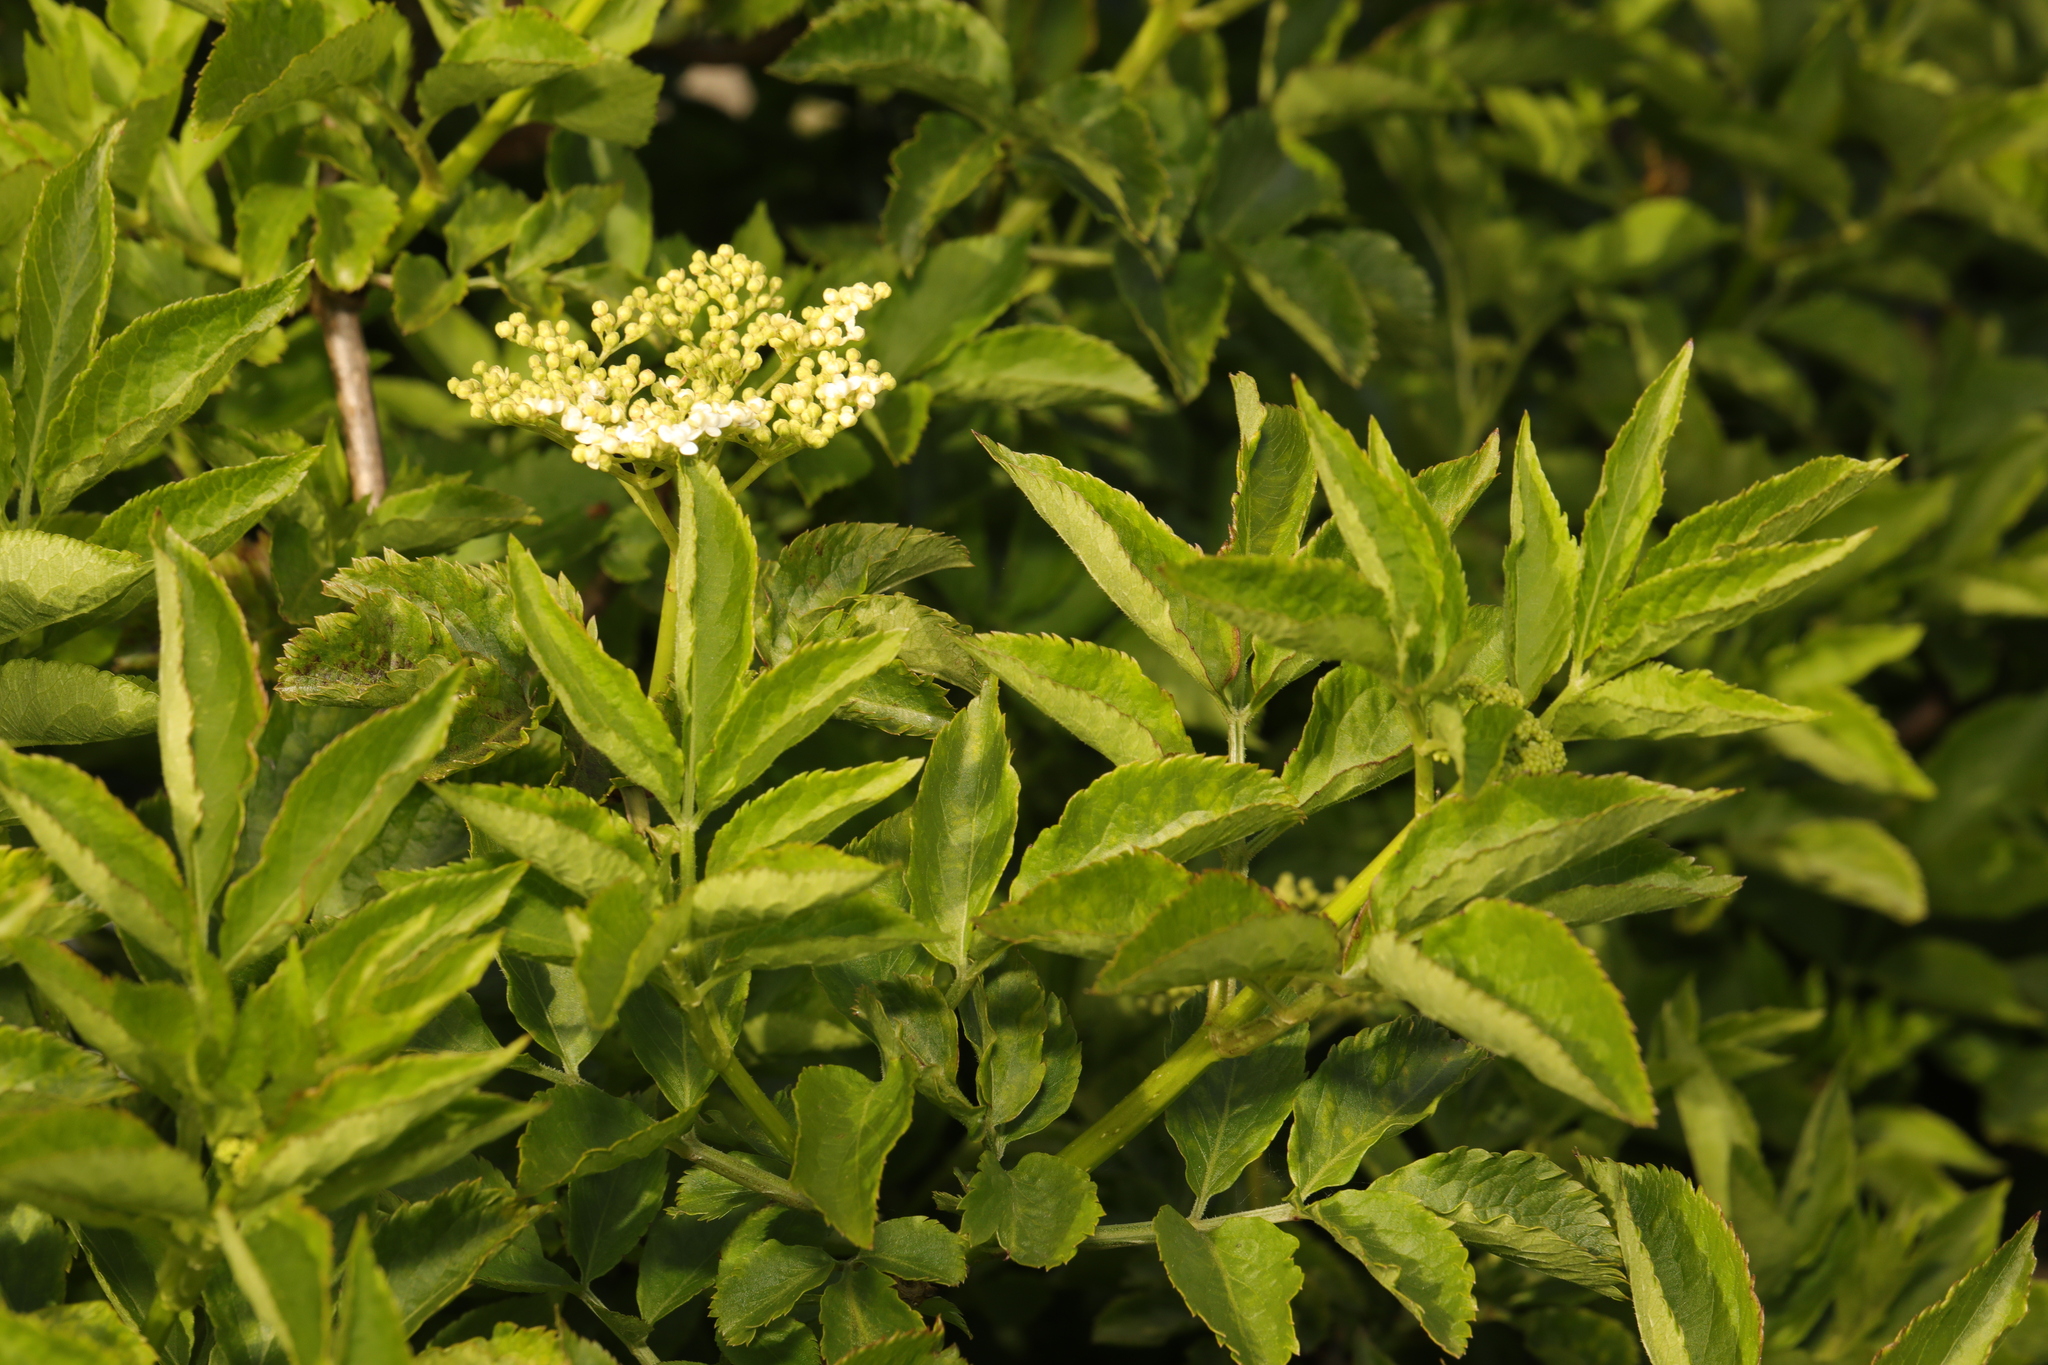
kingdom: Plantae
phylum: Tracheophyta
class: Magnoliopsida
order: Dipsacales
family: Viburnaceae
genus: Sambucus
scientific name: Sambucus nigra
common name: Elder
